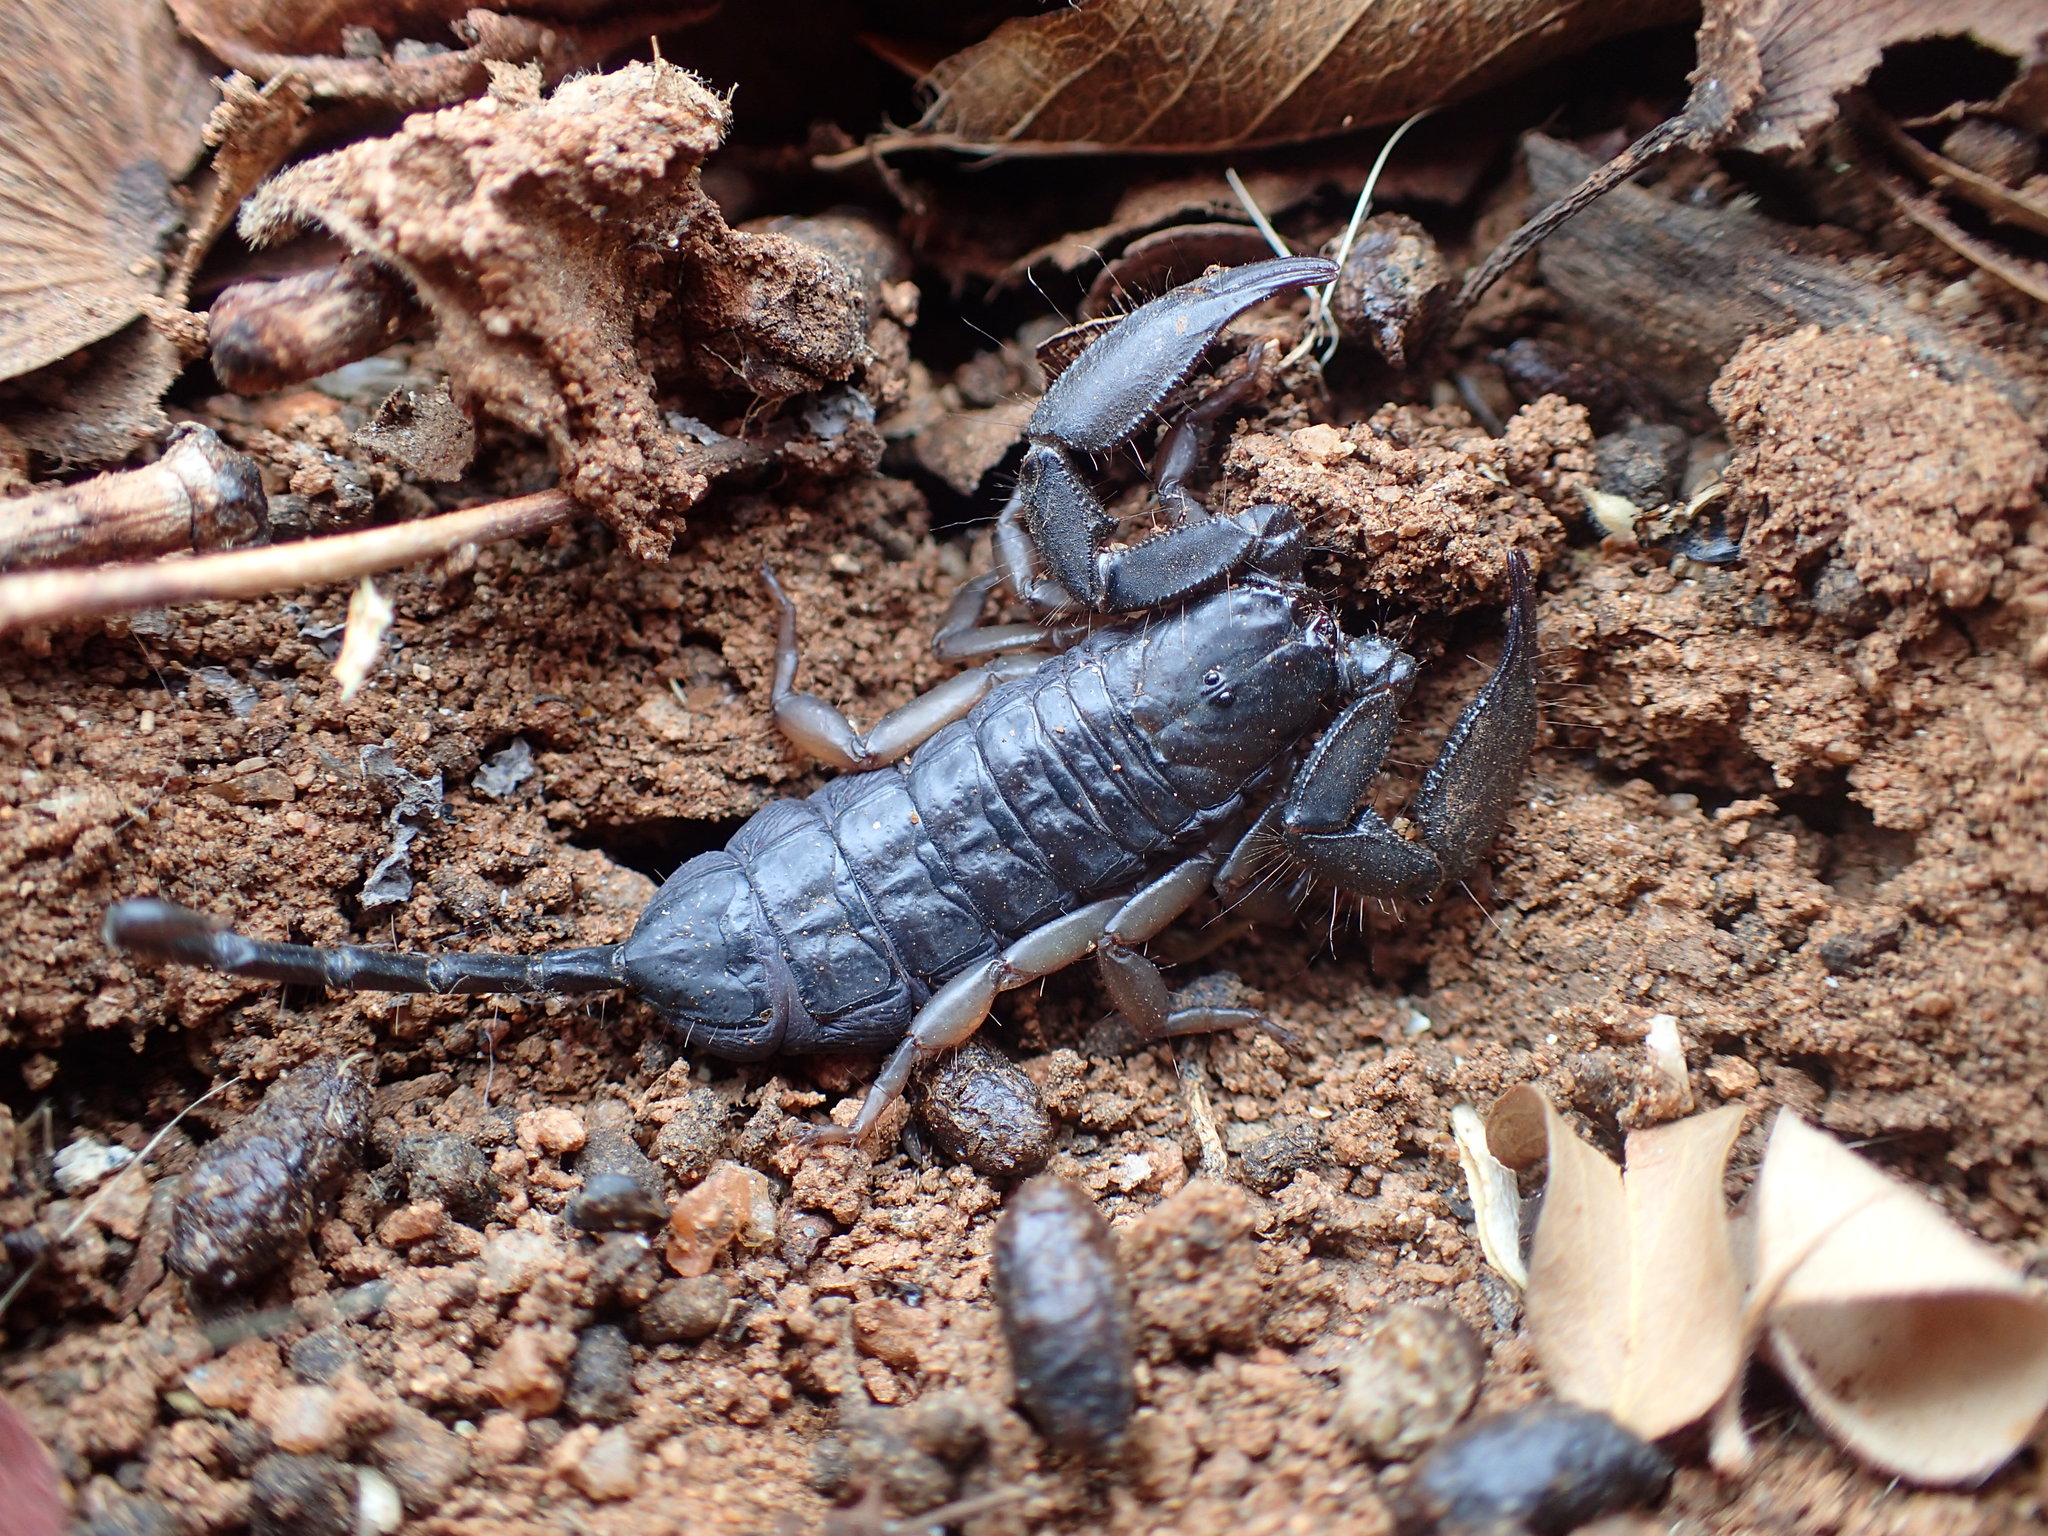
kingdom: Animalia
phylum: Arthropoda
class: Arachnida
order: Scorpiones
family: Hormuridae
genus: Hadogenes
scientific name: Hadogenes troglodytes
